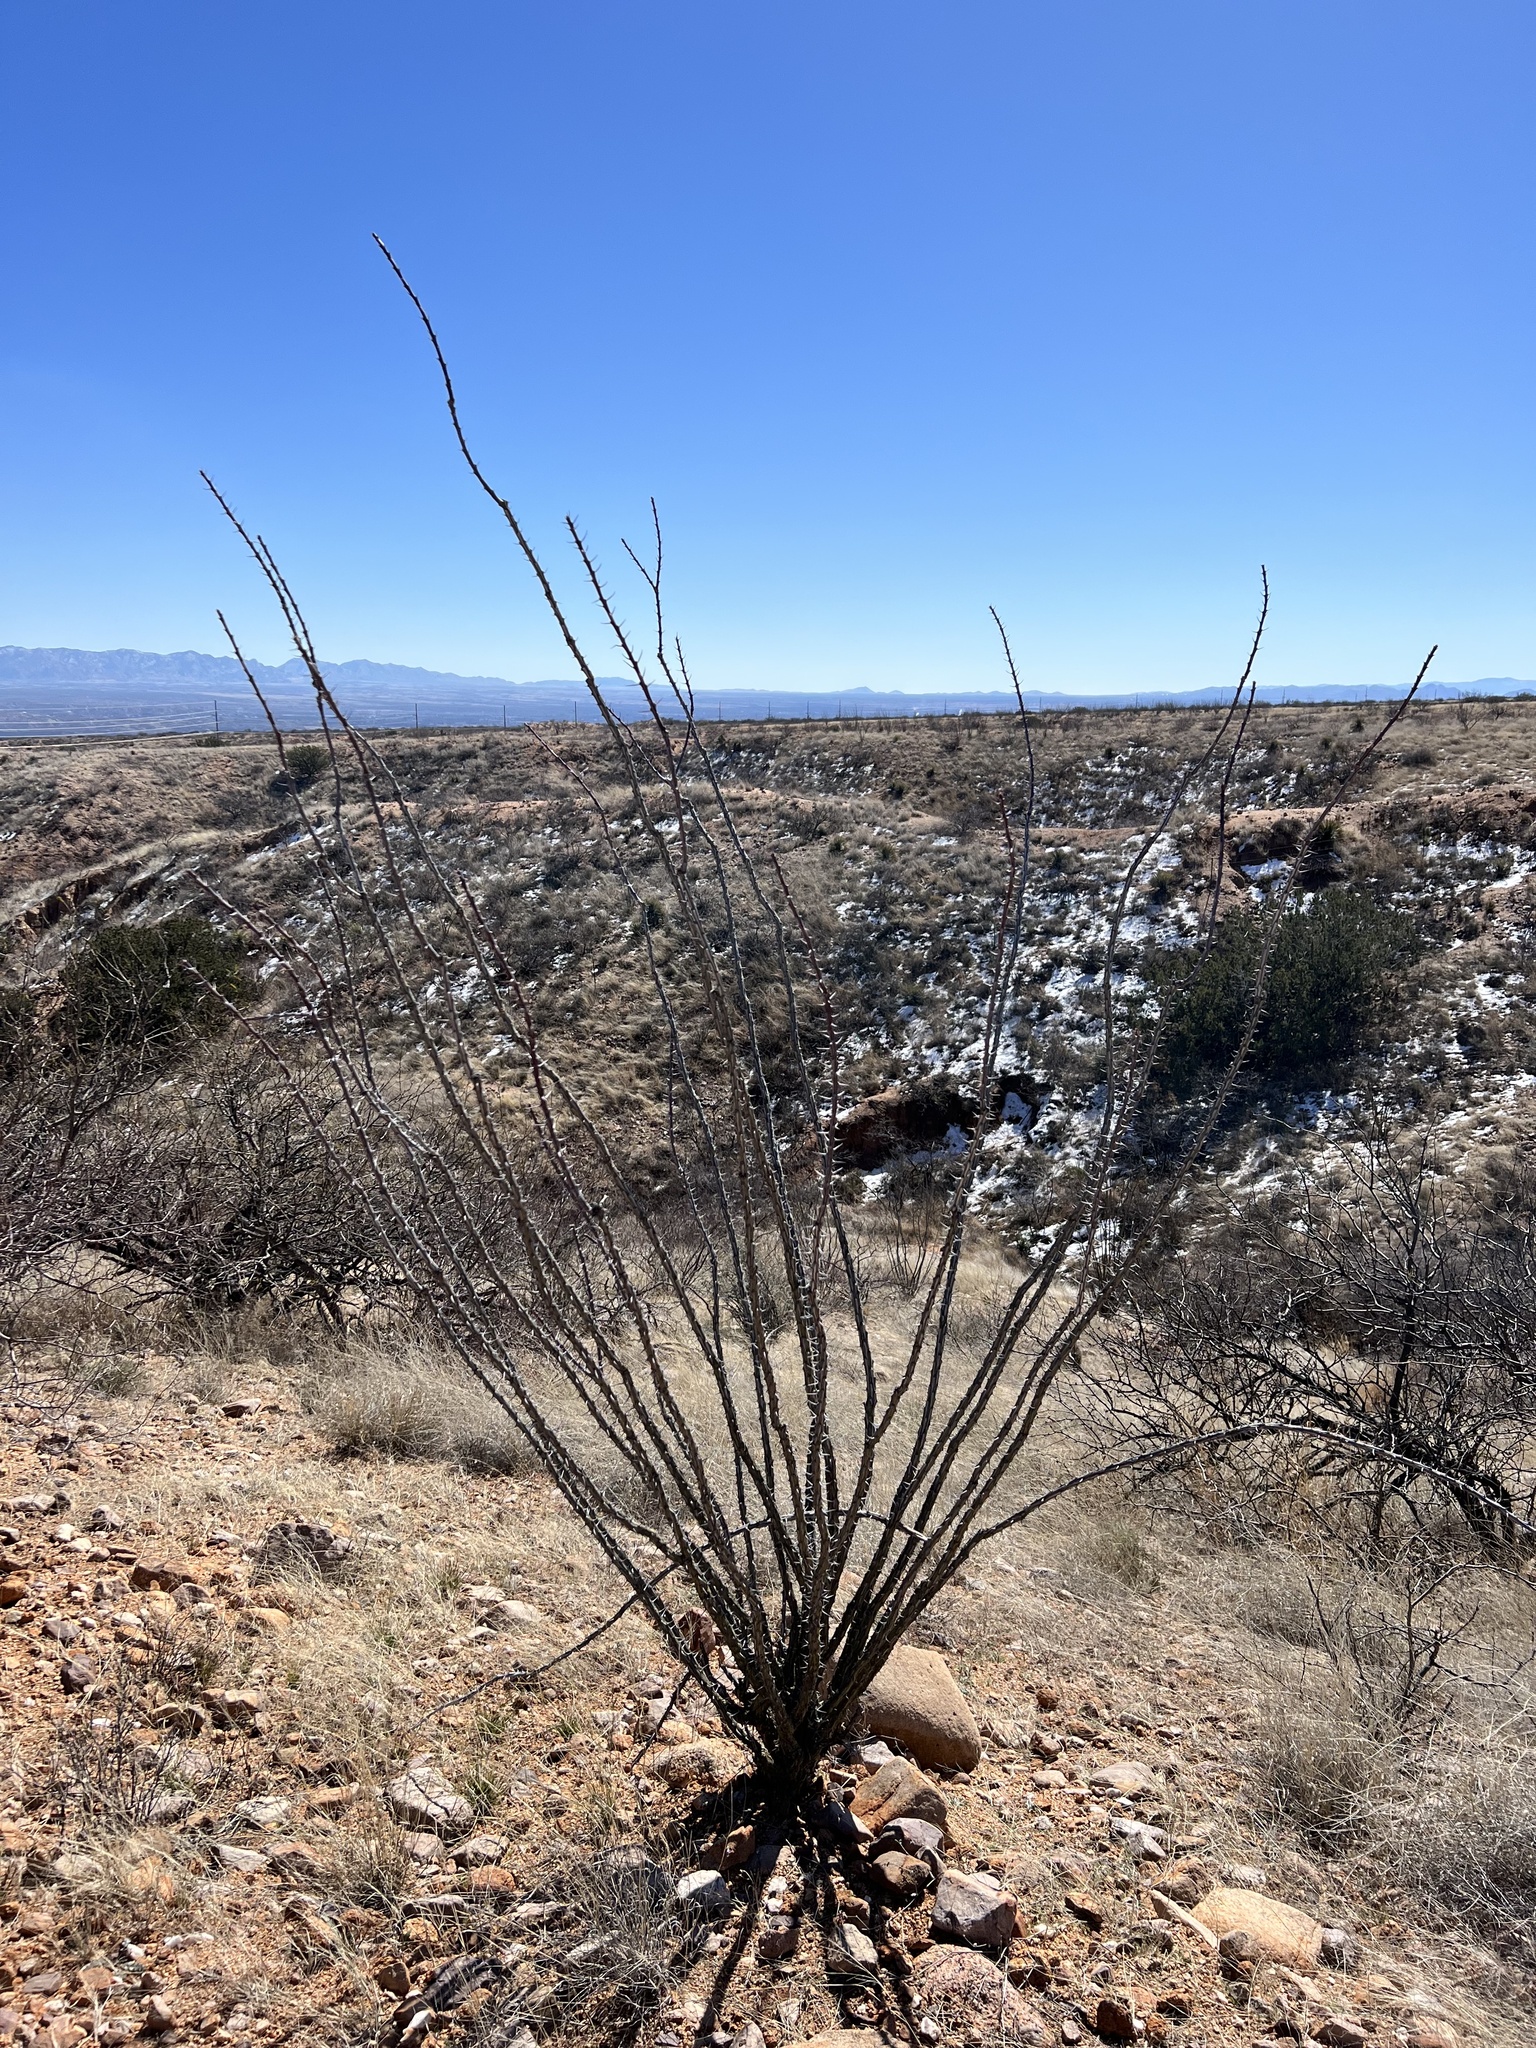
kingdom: Plantae
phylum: Tracheophyta
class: Magnoliopsida
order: Ericales
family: Fouquieriaceae
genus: Fouquieria
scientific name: Fouquieria splendens
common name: Vine-cactus
